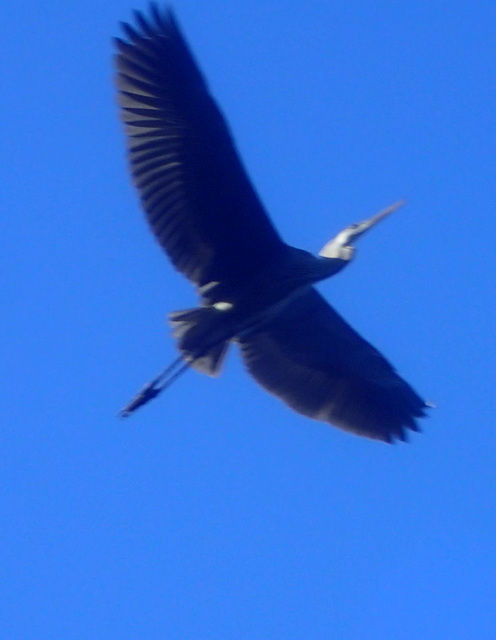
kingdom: Animalia
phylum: Chordata
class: Aves
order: Pelecaniformes
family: Ardeidae
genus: Ardea
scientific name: Ardea herodias
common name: Great blue heron
